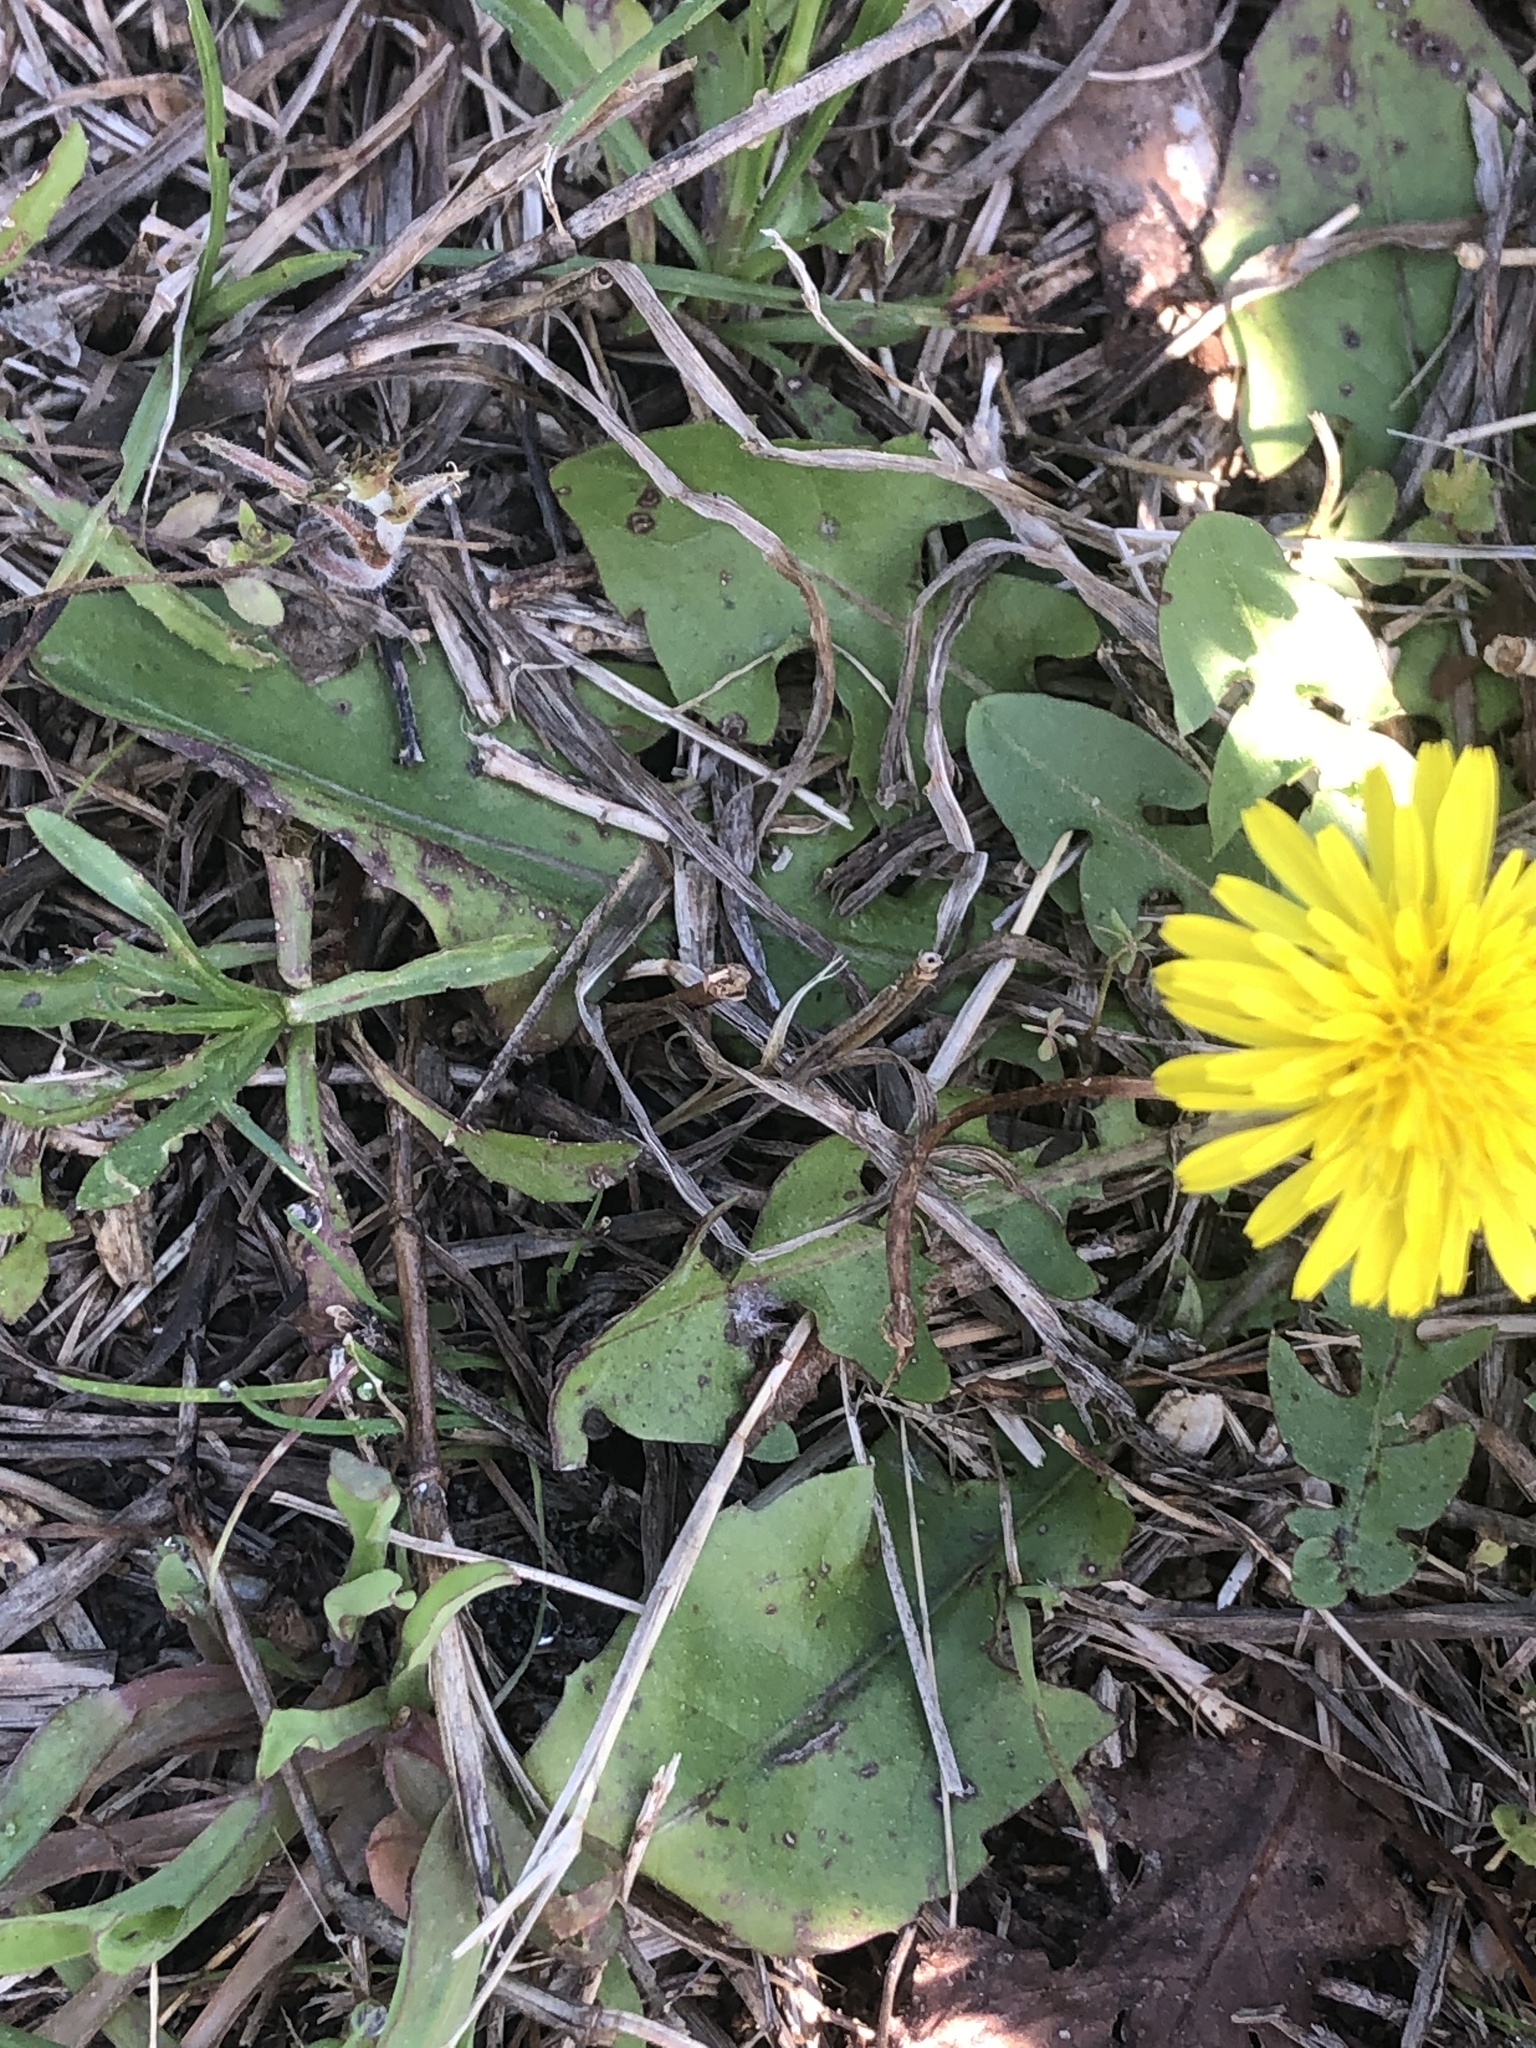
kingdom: Plantae
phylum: Tracheophyta
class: Magnoliopsida
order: Asterales
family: Asteraceae
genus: Taraxacum
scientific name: Taraxacum officinale
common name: Common dandelion
